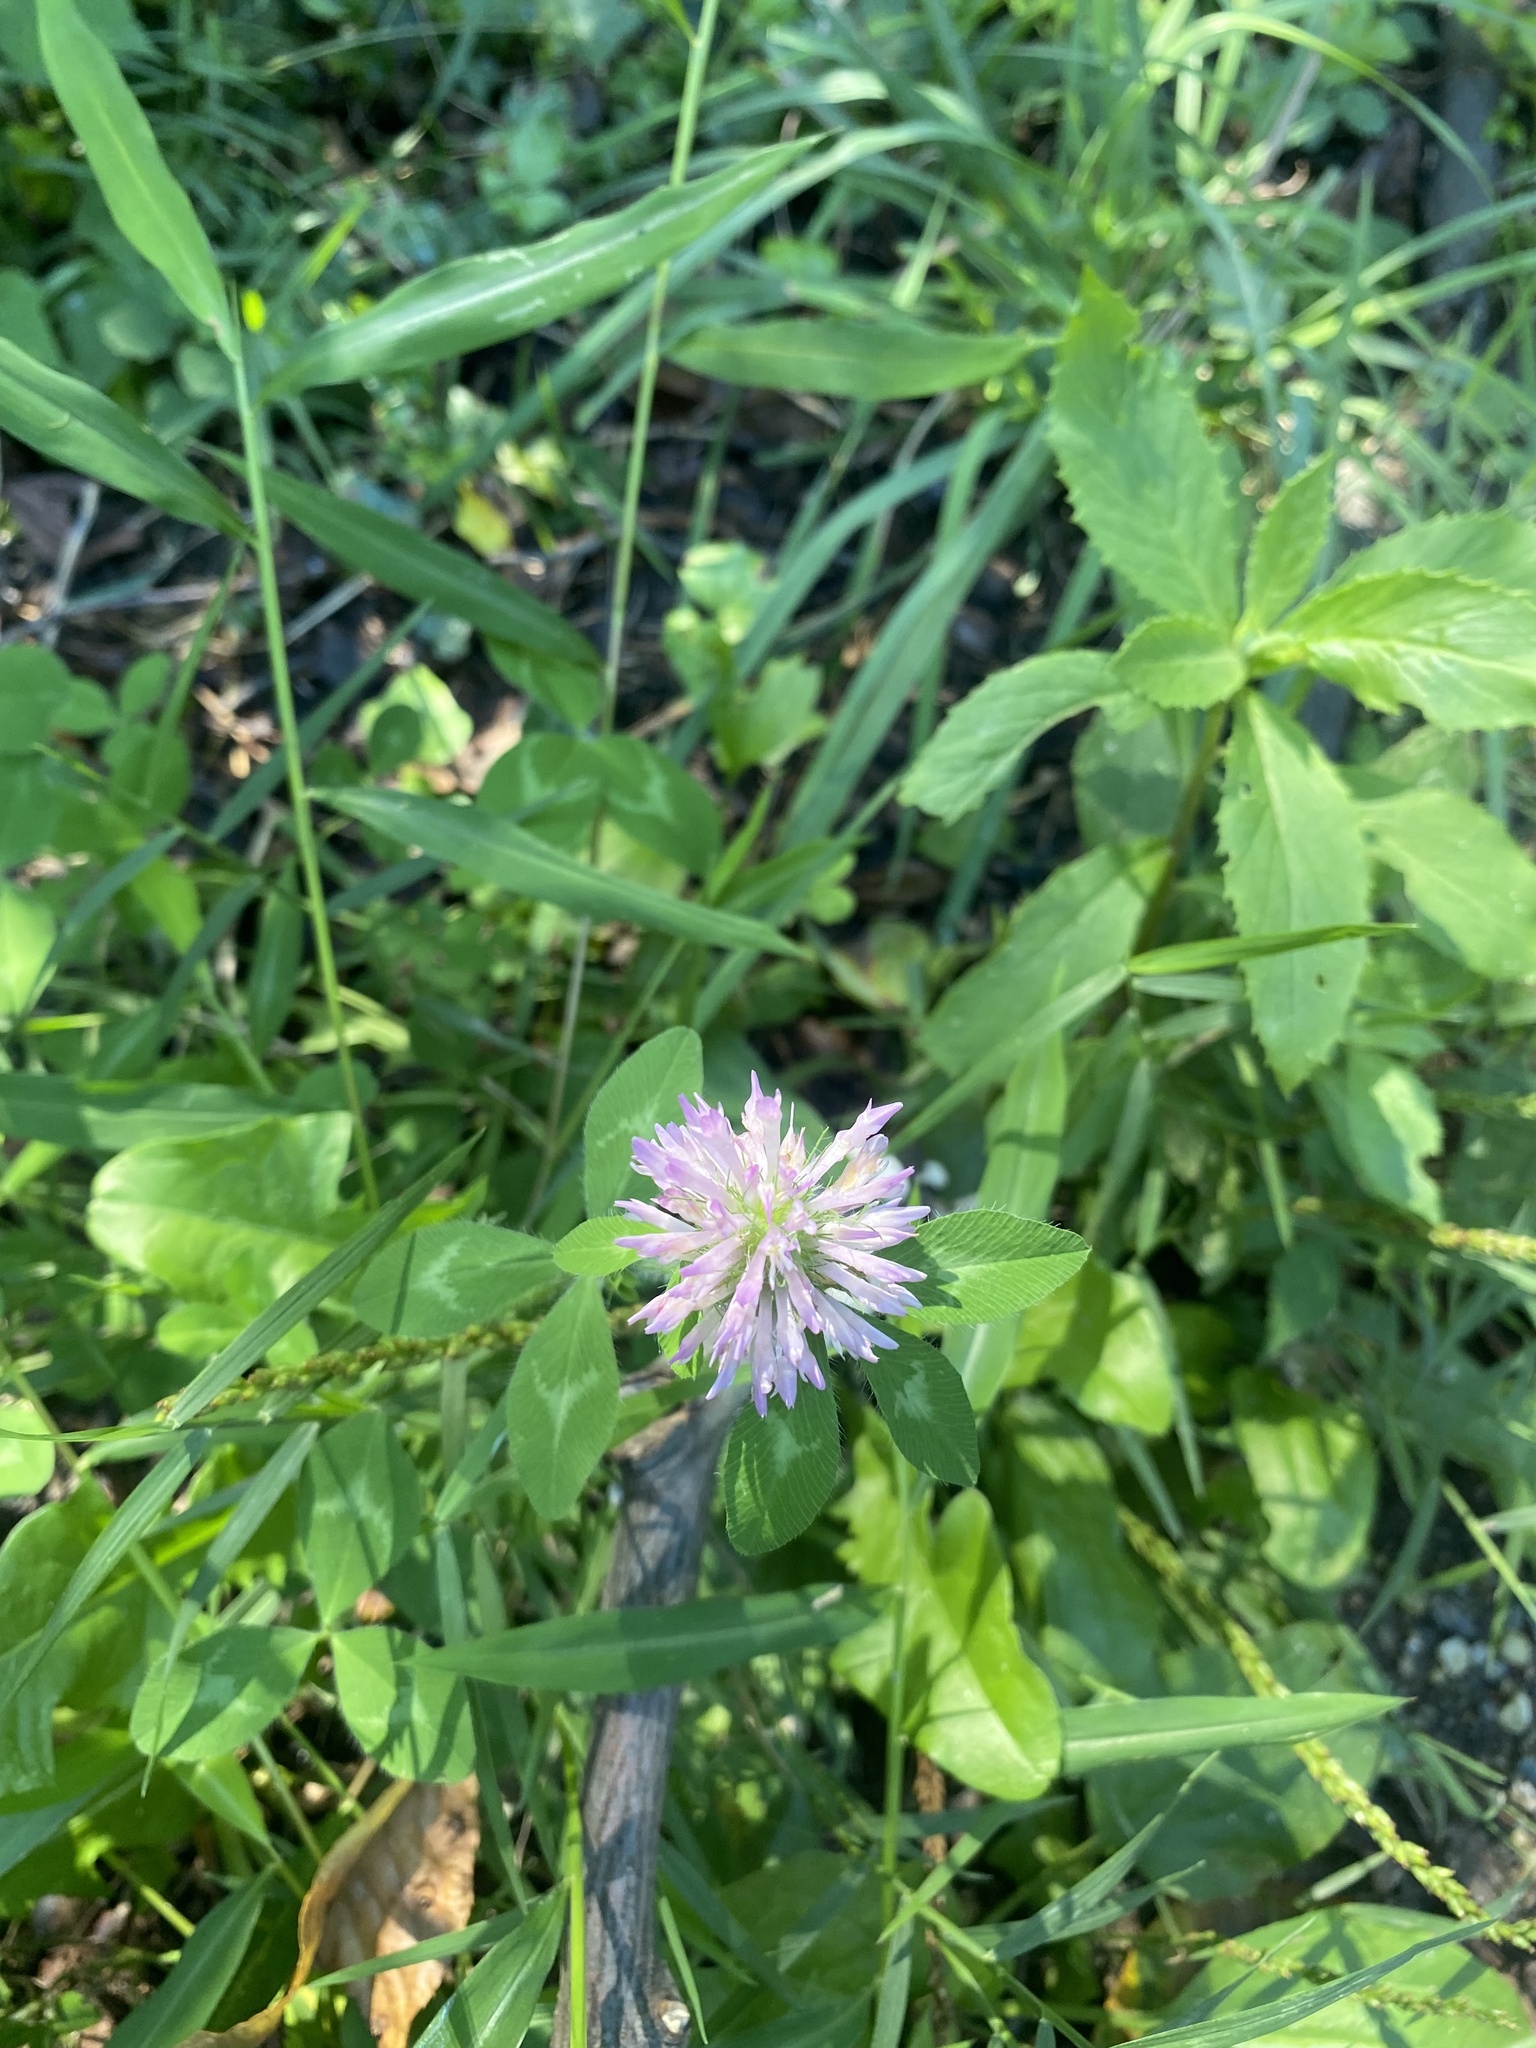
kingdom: Plantae
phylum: Tracheophyta
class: Magnoliopsida
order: Fabales
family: Fabaceae
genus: Trifolium
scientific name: Trifolium pratense
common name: Red clover
